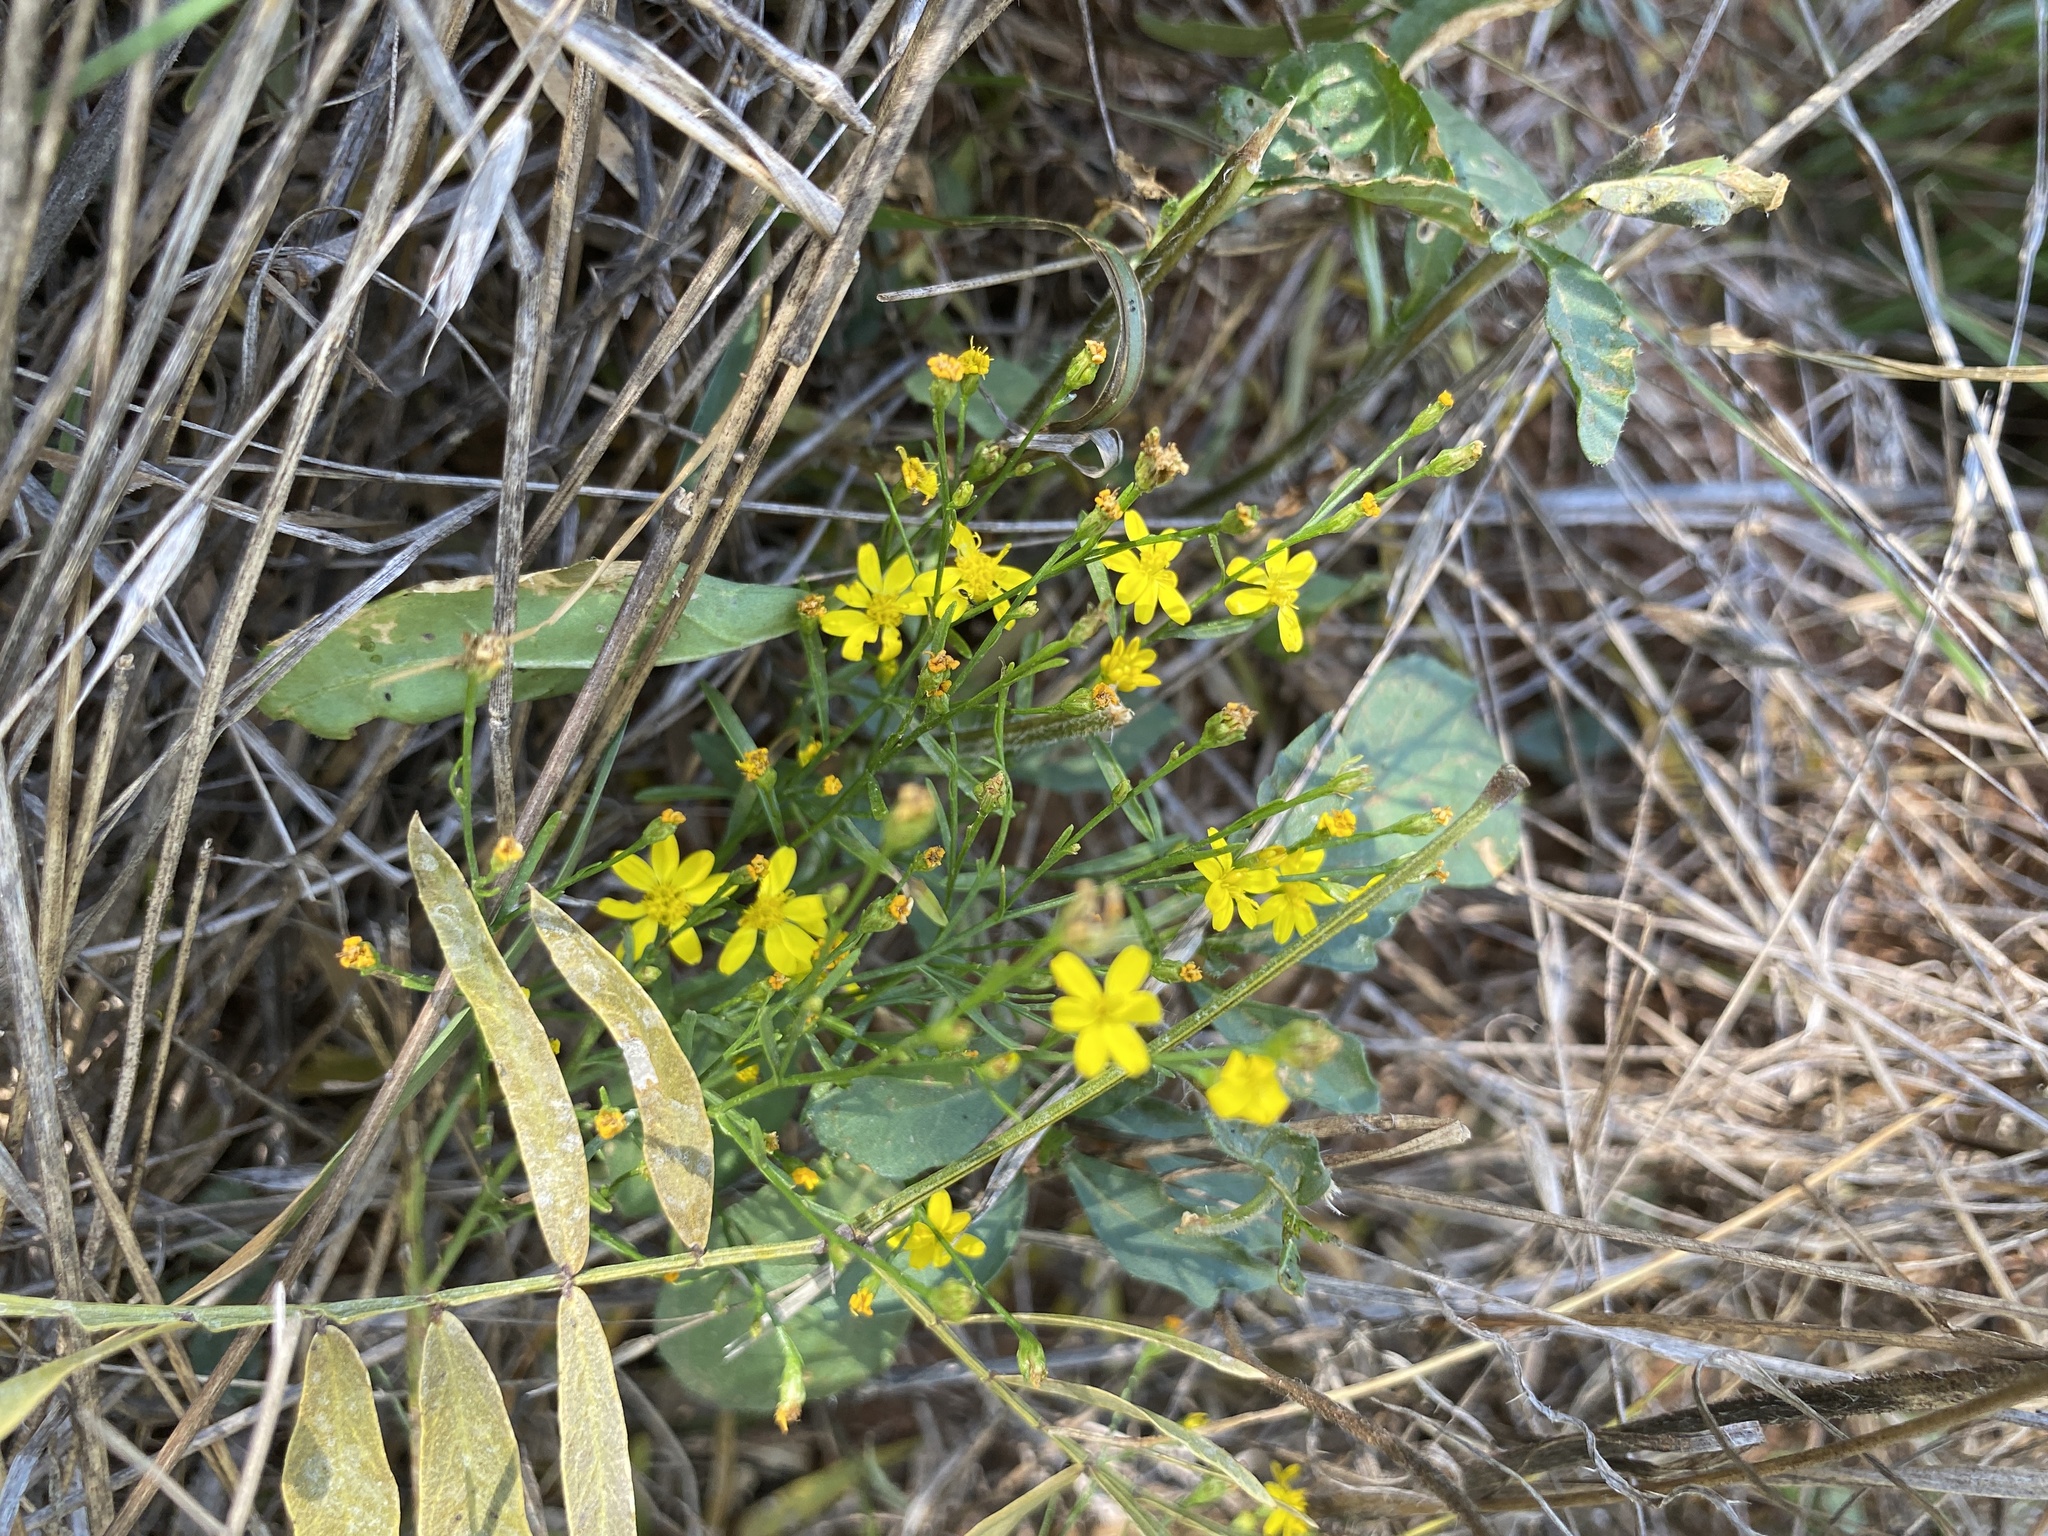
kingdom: Plantae
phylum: Tracheophyta
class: Magnoliopsida
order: Asterales
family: Asteraceae
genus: Gutierrezia
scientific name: Gutierrezia texana
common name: Texas snakeweed
